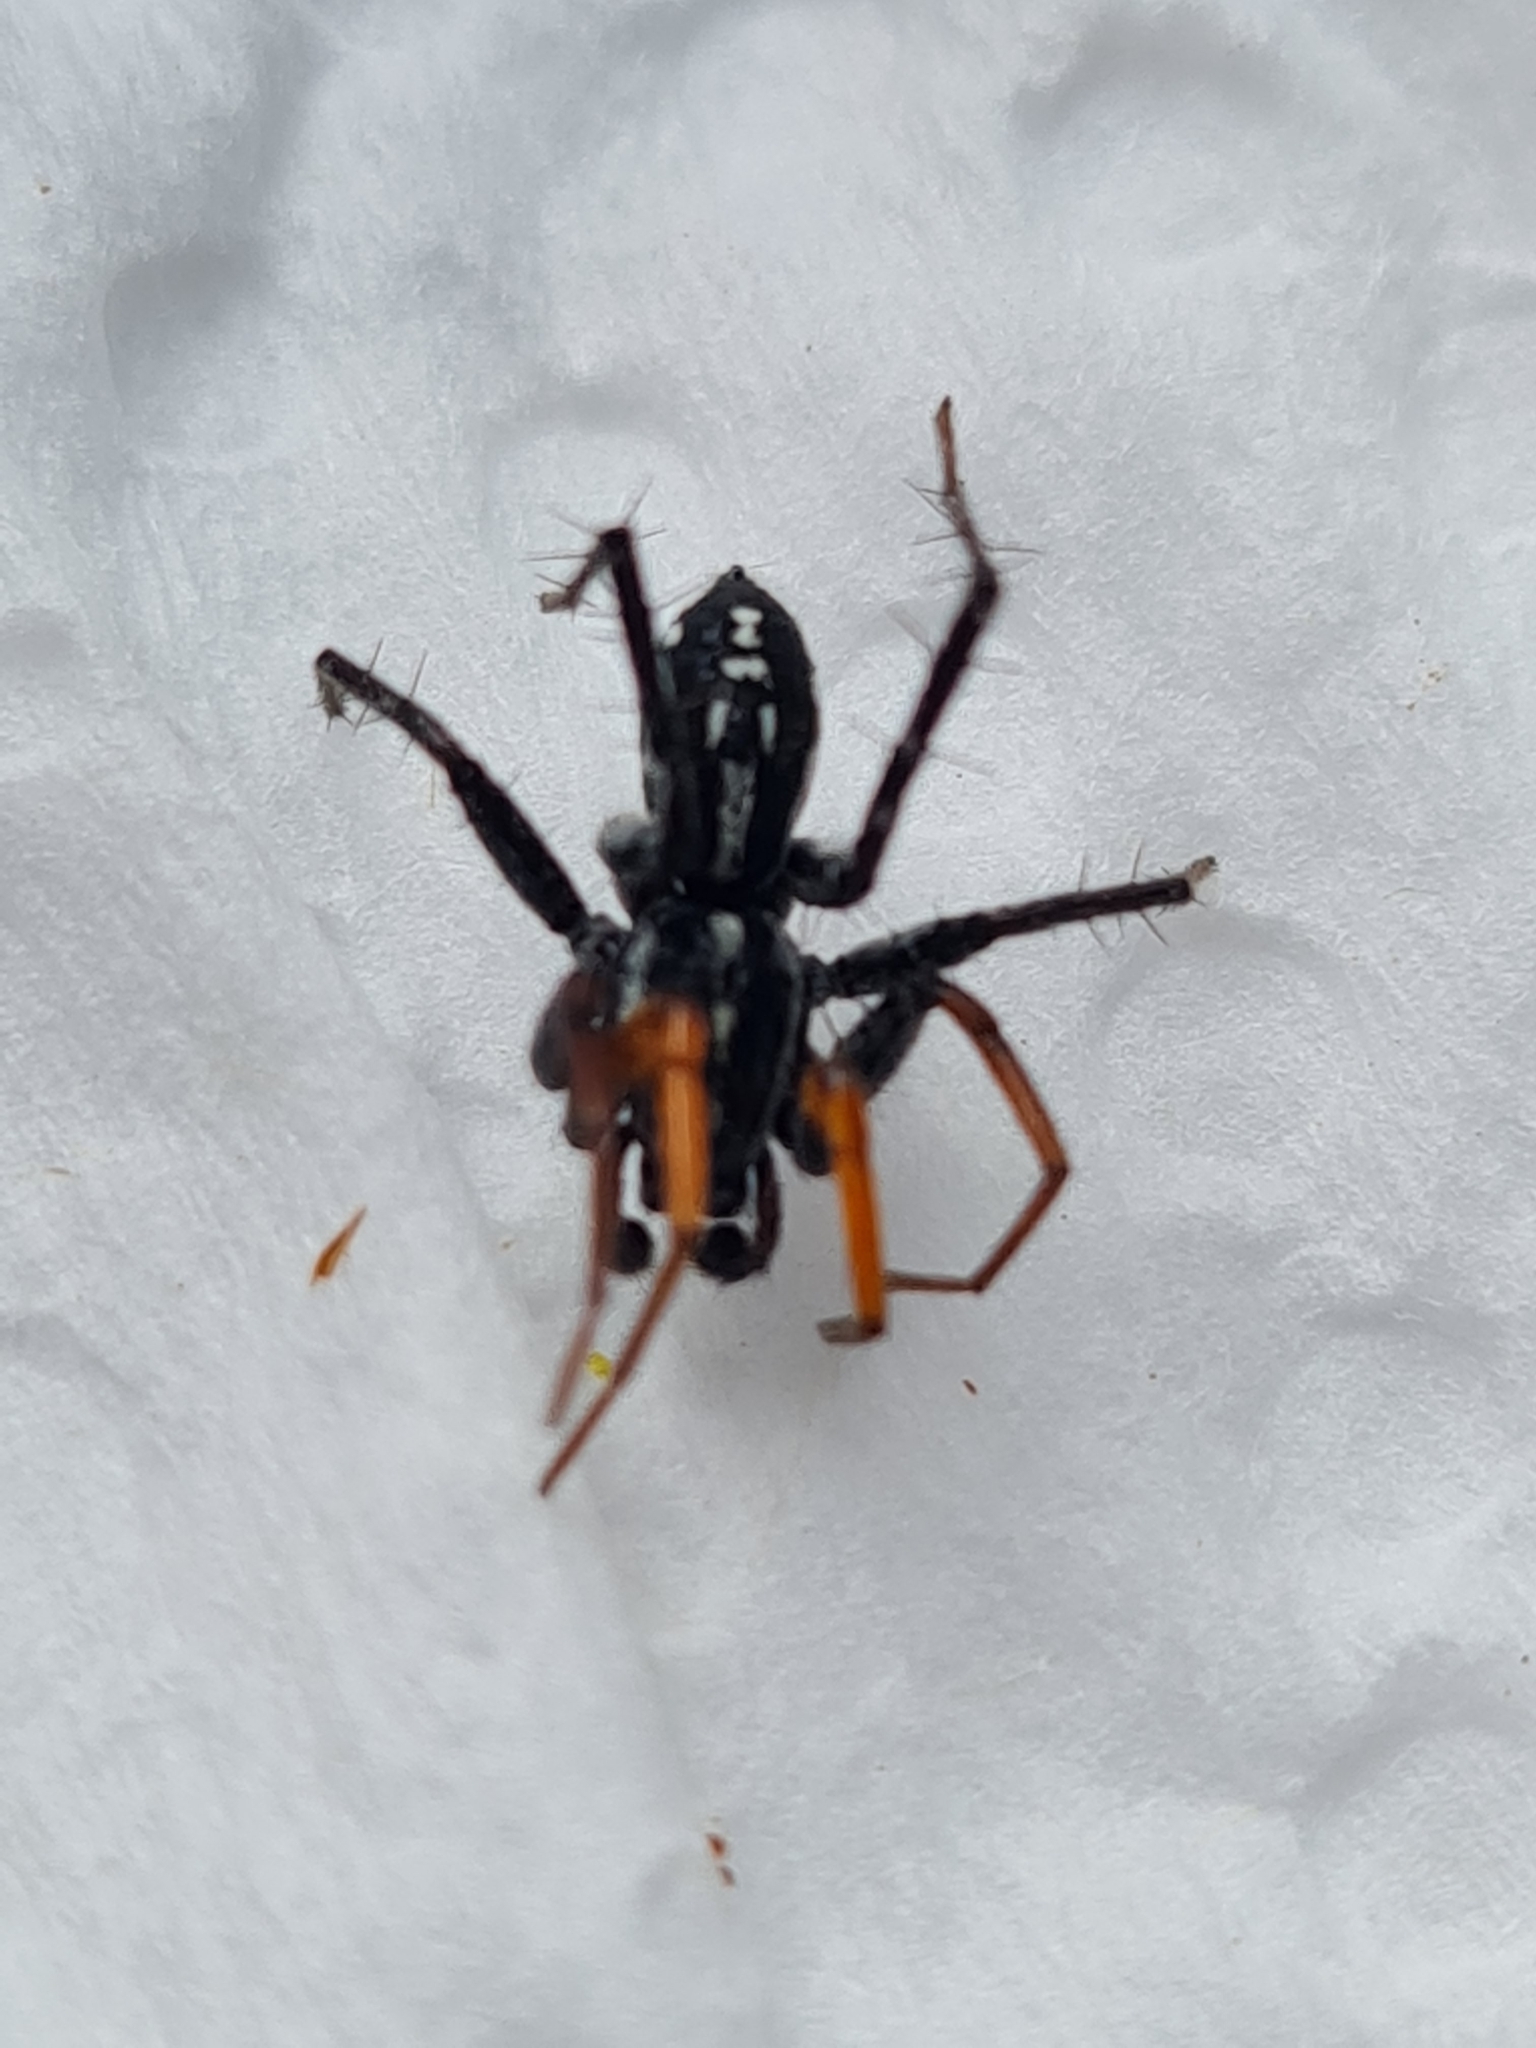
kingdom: Animalia
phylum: Arthropoda
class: Arachnida
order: Araneae
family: Corinnidae
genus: Nyssus
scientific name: Nyssus coloripes
